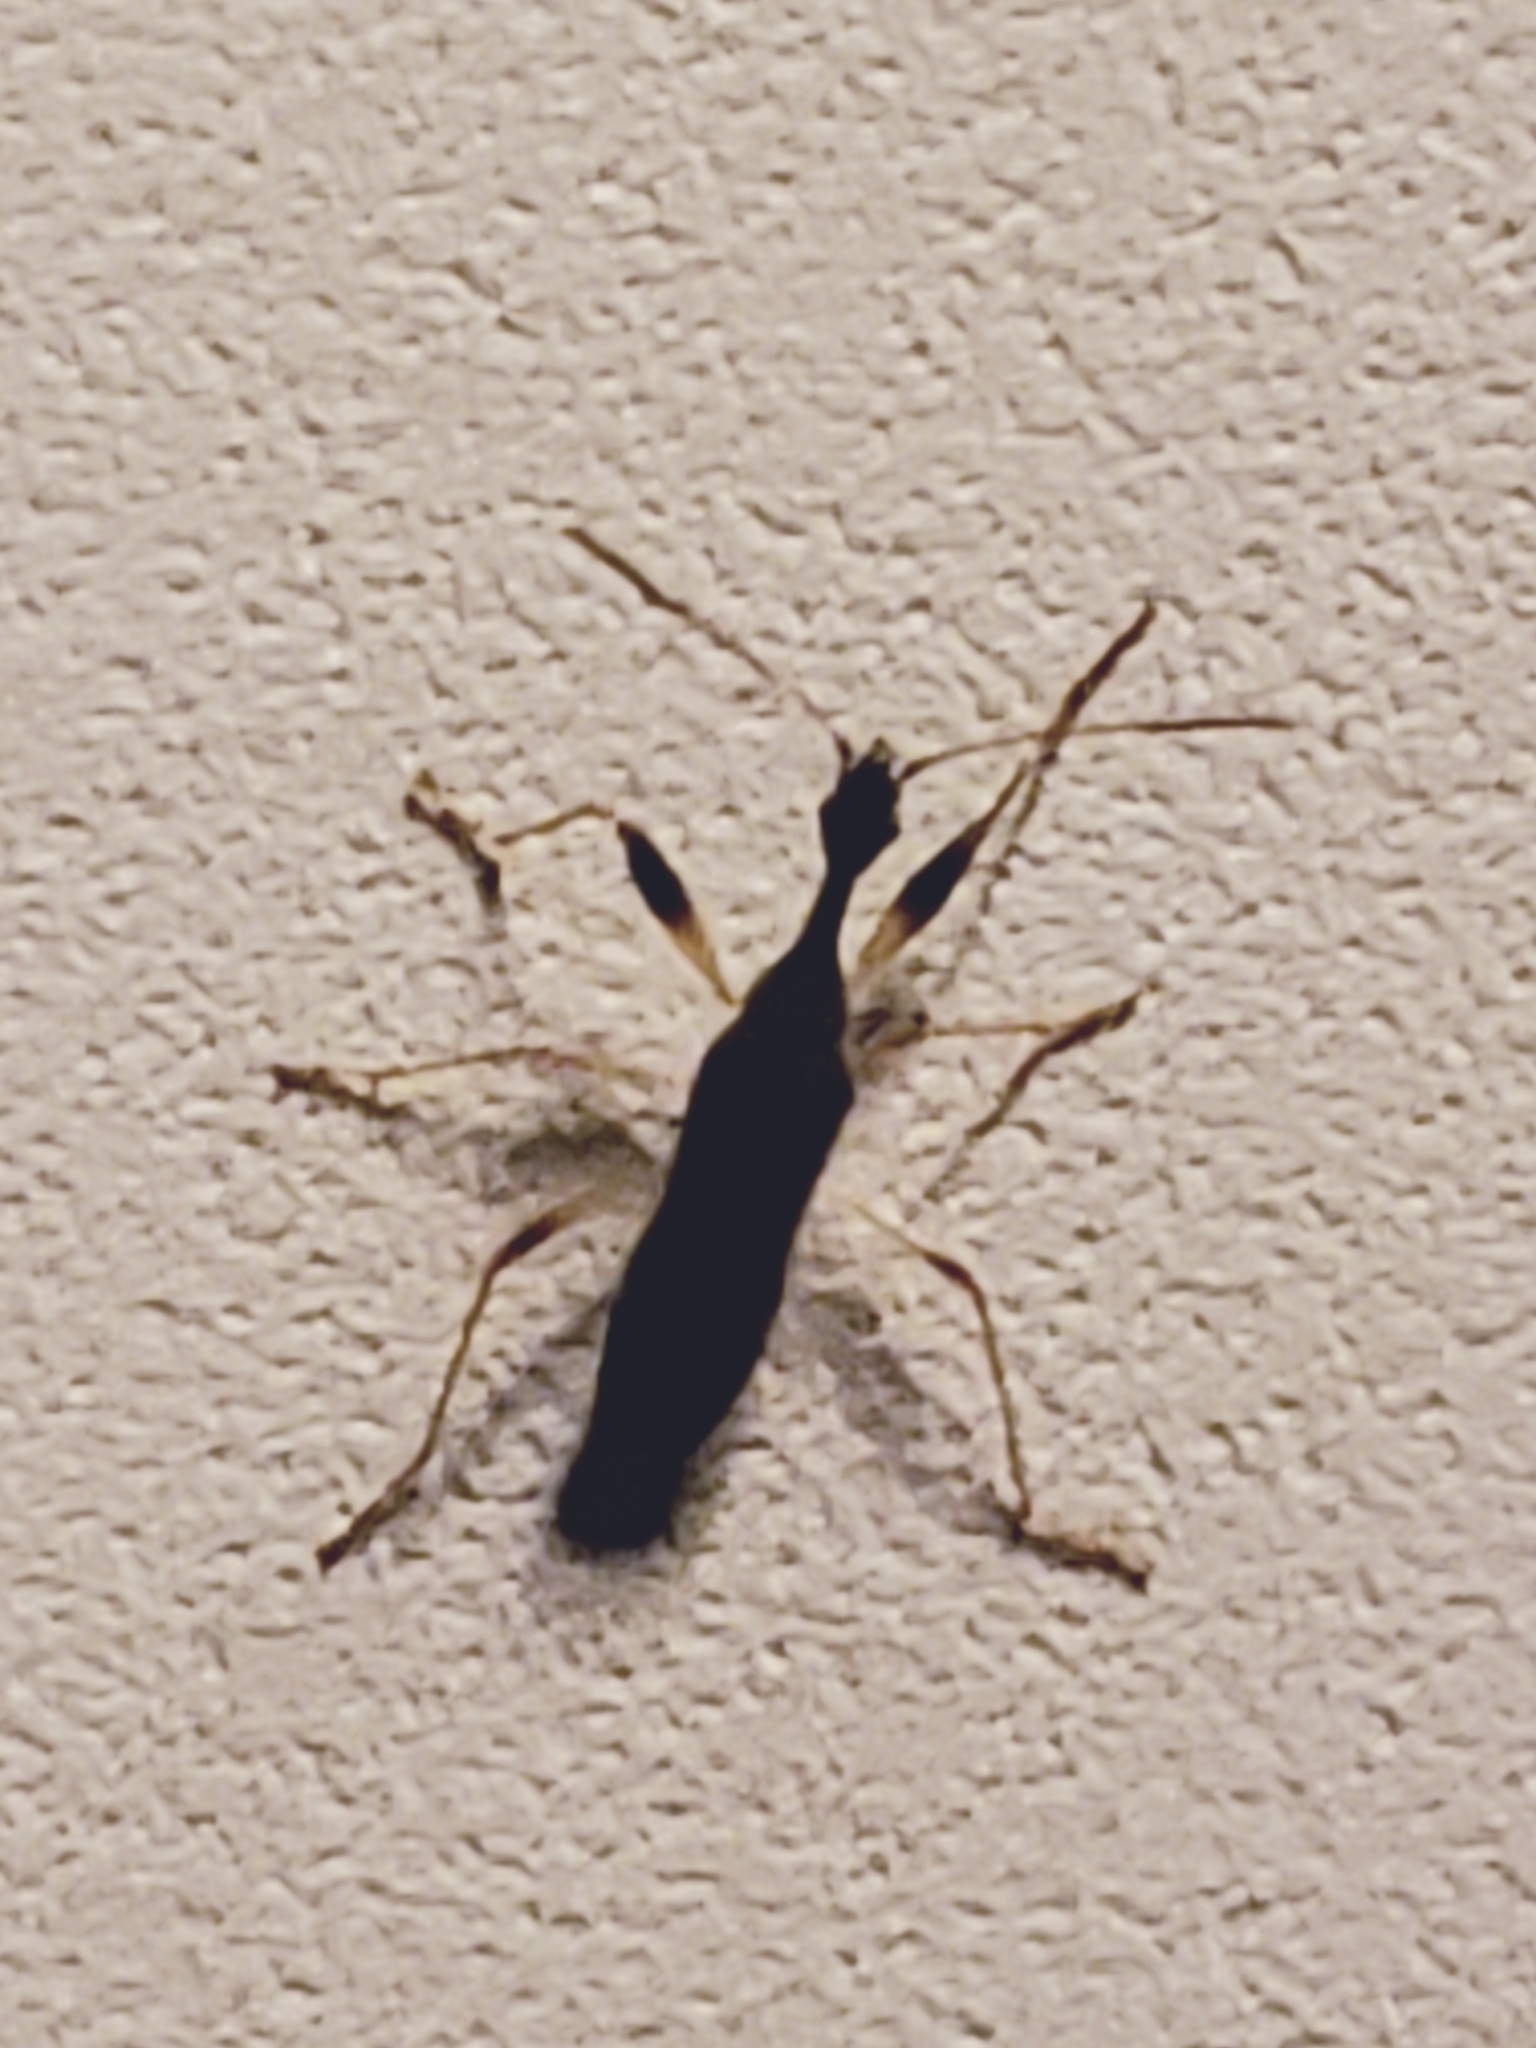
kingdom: Animalia
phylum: Arthropoda
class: Insecta
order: Hemiptera
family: Rhyparochromidae
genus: Myodocha
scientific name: Myodocha serripes
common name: Long-necked seed bug
